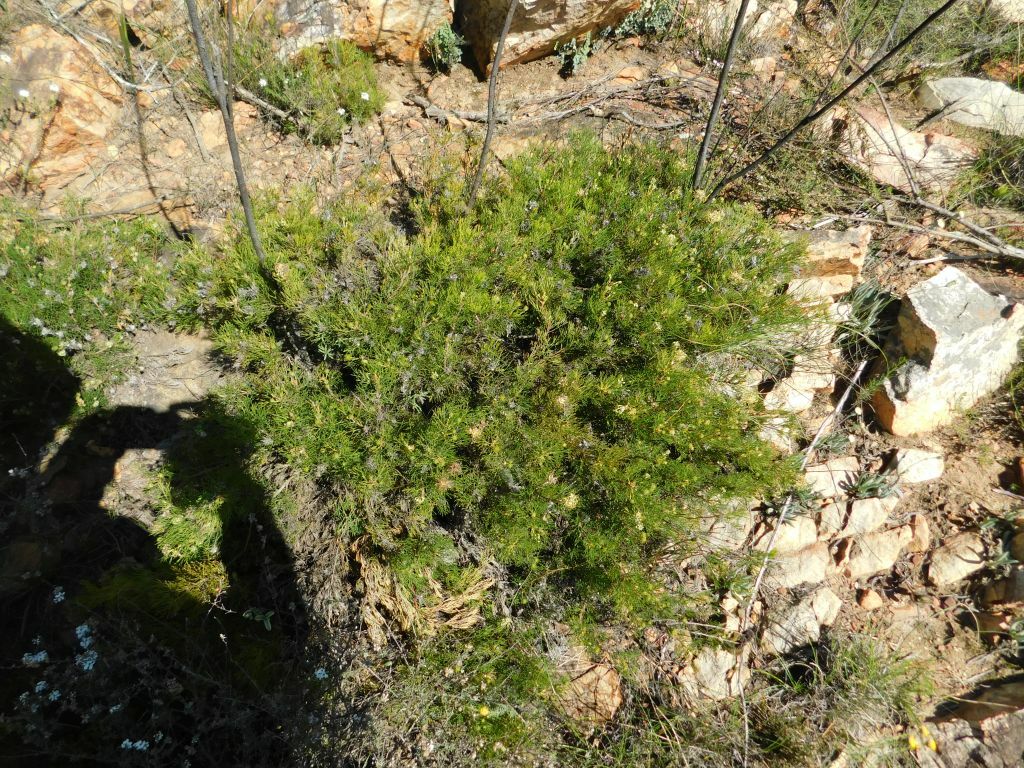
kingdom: Plantae
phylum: Tracheophyta
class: Magnoliopsida
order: Proteales
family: Proteaceae
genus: Serruria
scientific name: Serruria
